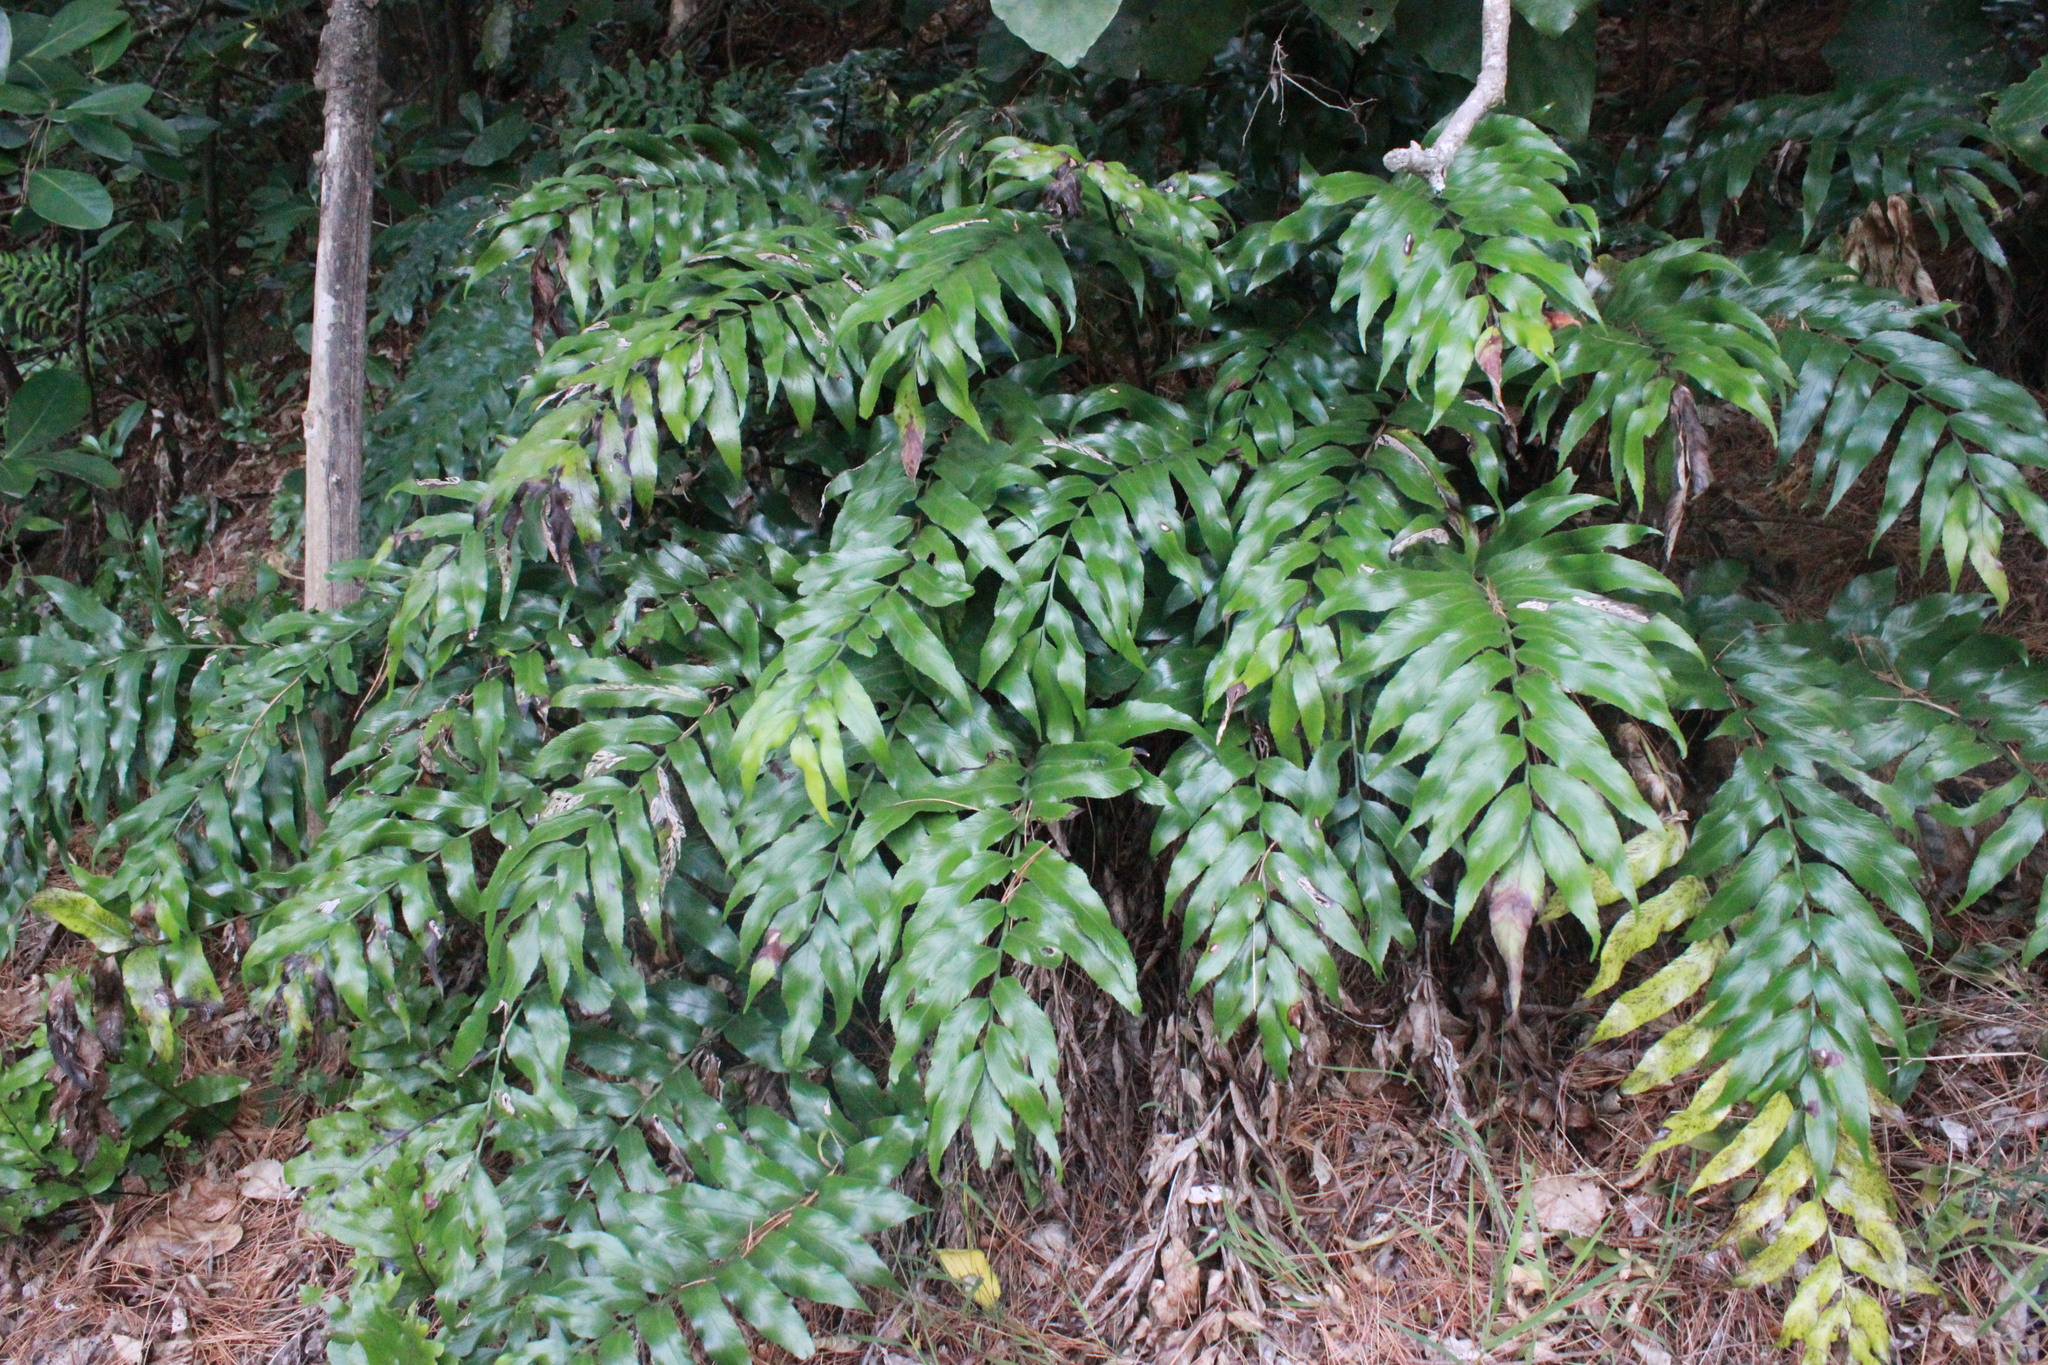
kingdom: Plantae
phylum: Tracheophyta
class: Polypodiopsida
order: Polypodiales
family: Aspleniaceae
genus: Asplenium
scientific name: Asplenium oblongifolium
